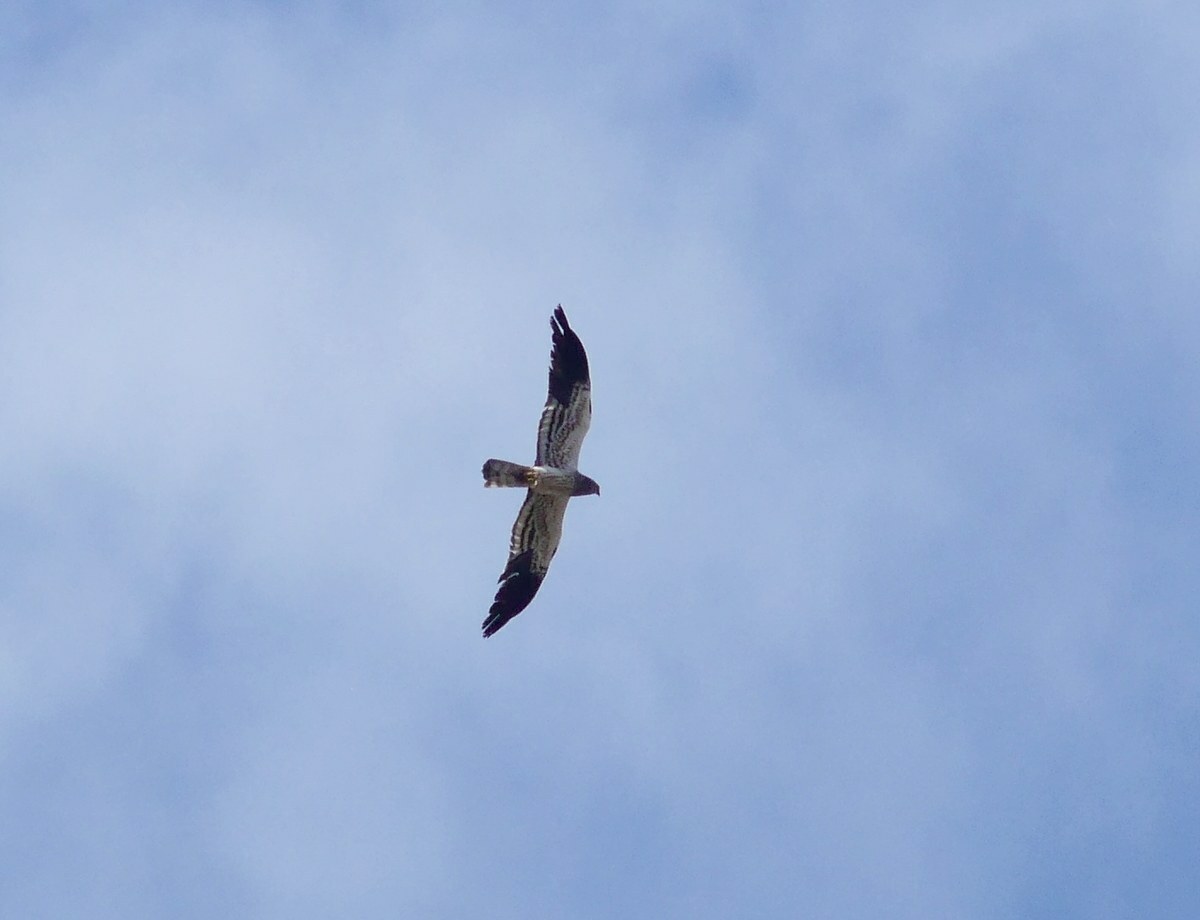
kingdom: Animalia
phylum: Chordata
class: Aves
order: Accipitriformes
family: Accipitridae
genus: Circus
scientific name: Circus pygargus
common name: Montagu's harrier
